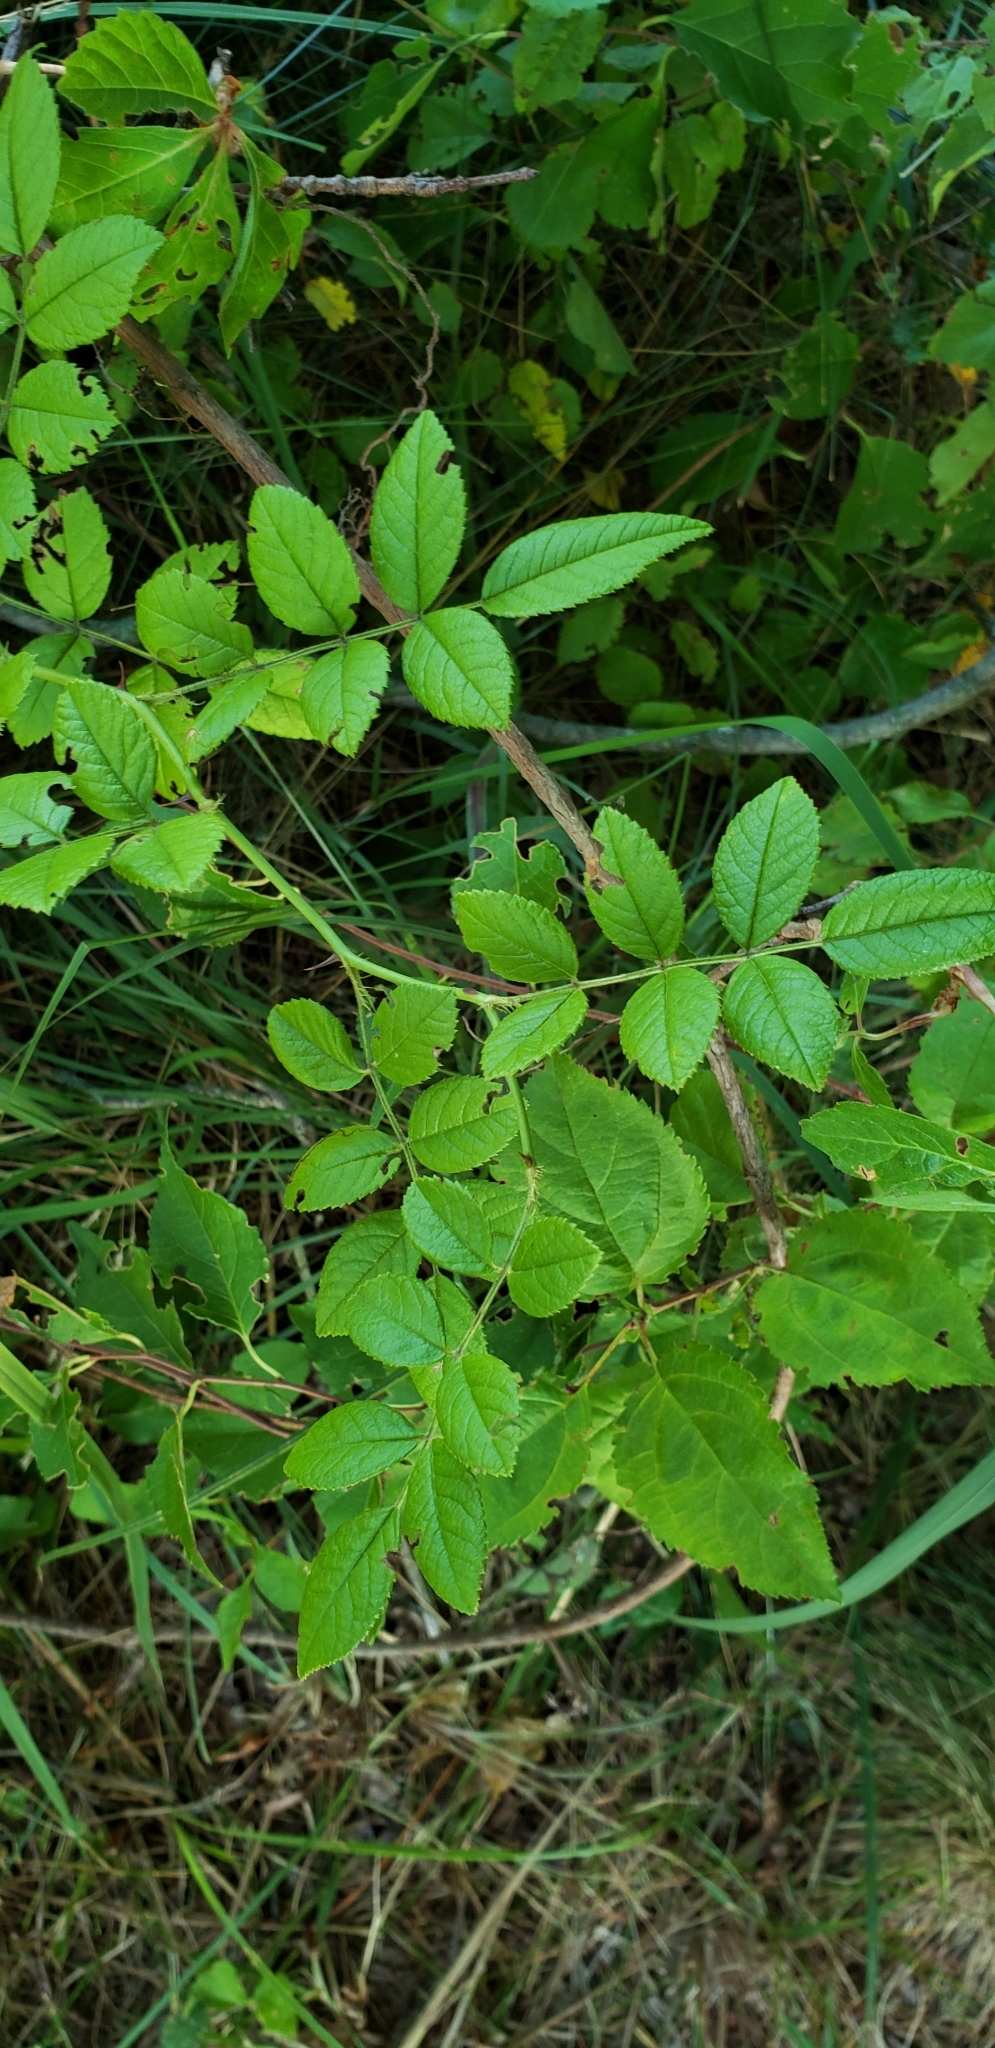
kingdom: Plantae
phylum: Tracheophyta
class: Magnoliopsida
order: Rosales
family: Rosaceae
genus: Rosa
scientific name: Rosa multiflora
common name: Multiflora rose
